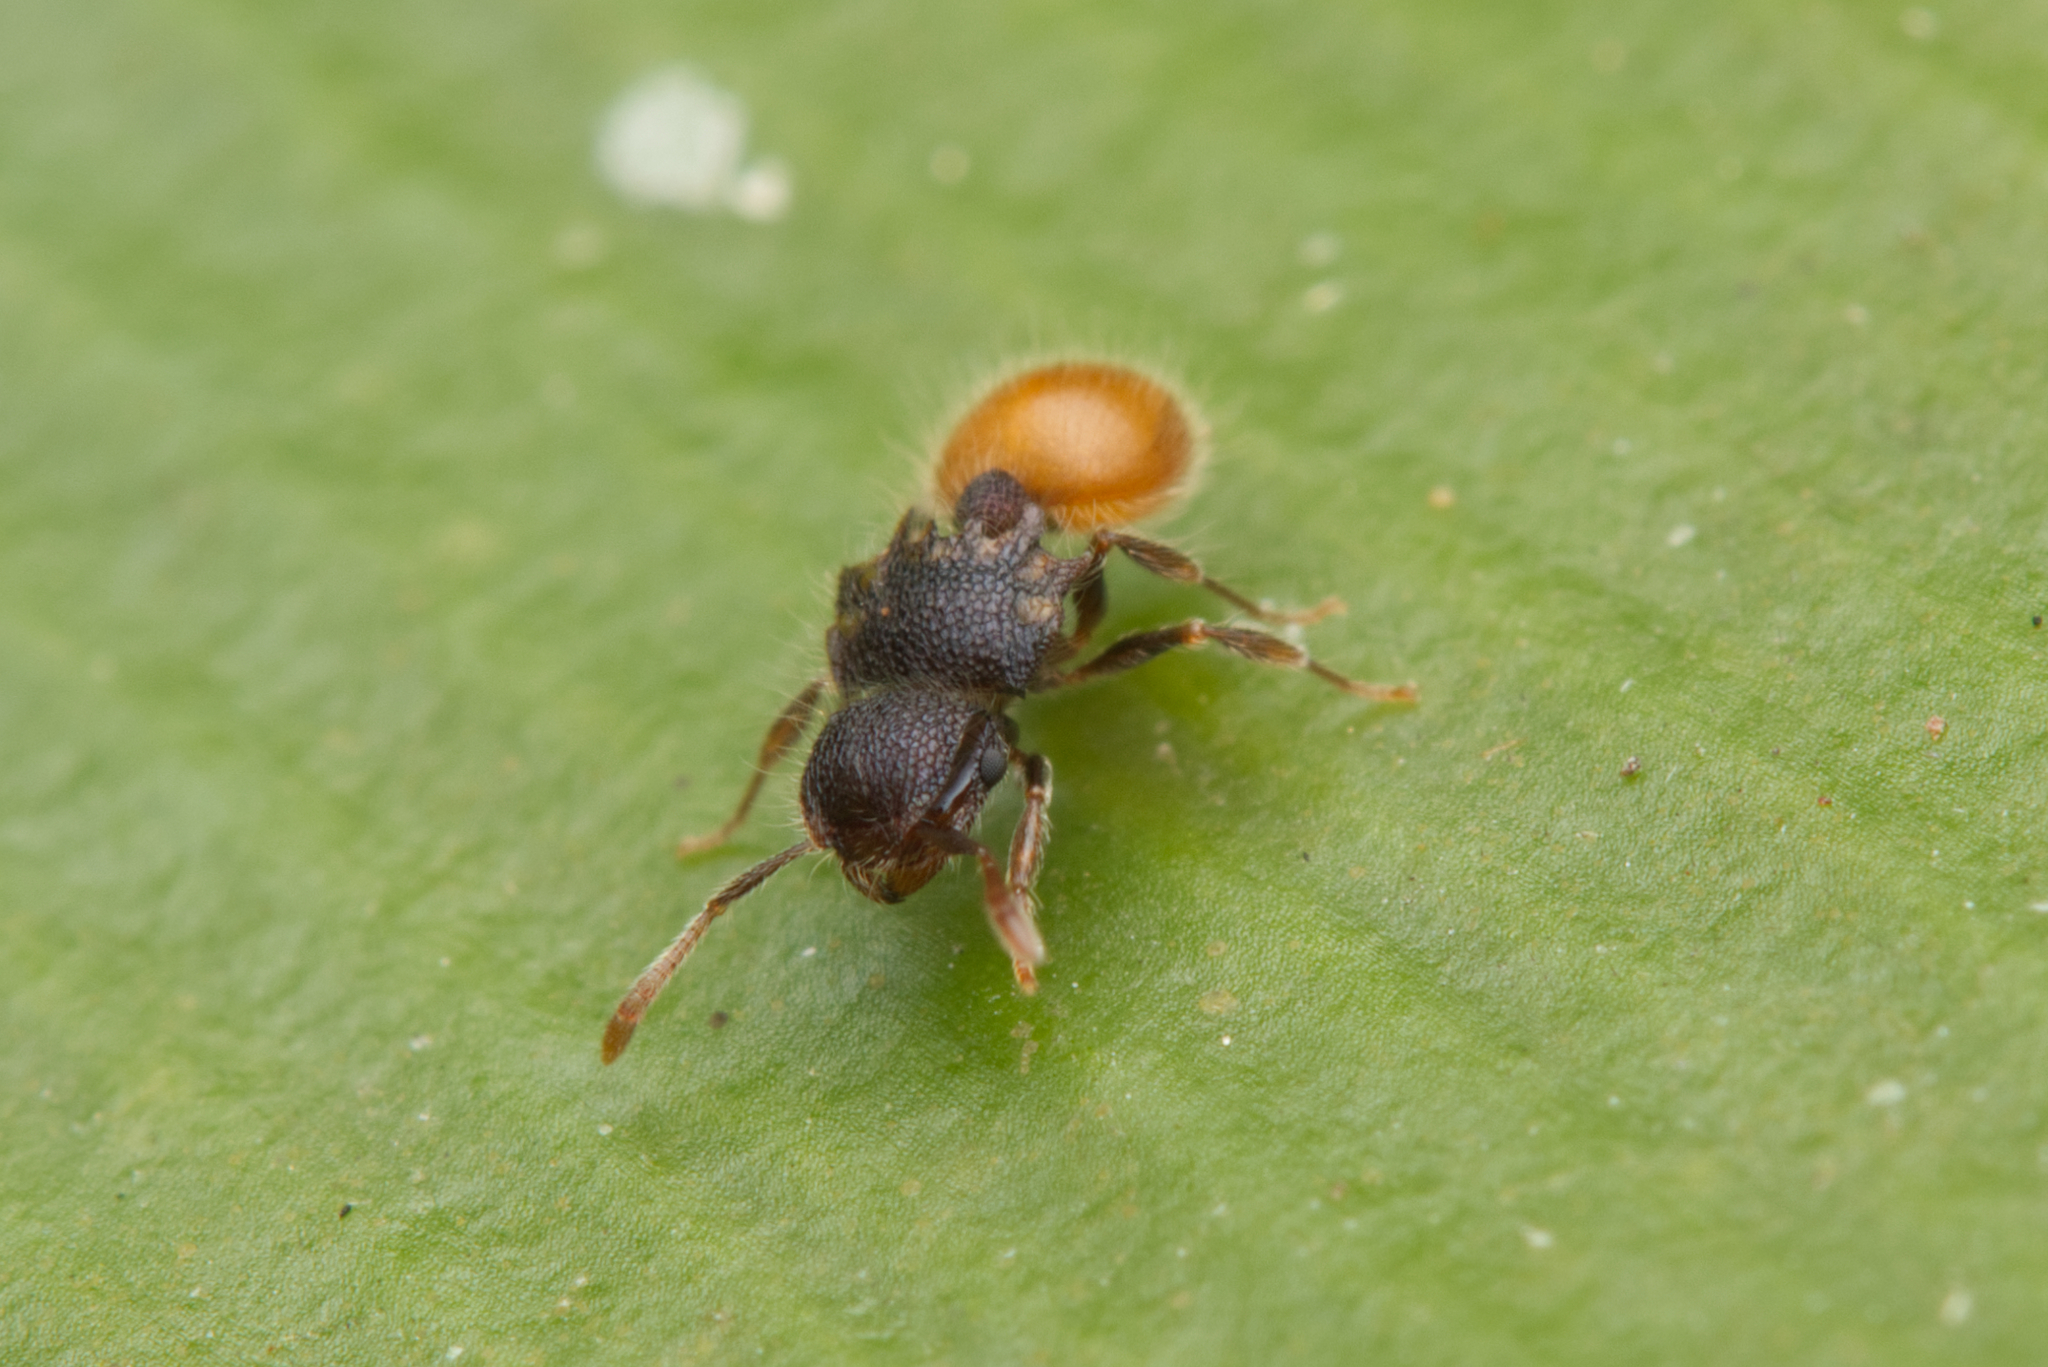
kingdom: Animalia
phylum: Arthropoda
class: Insecta
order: Hymenoptera
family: Formicidae
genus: Meranoplus
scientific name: Meranoplus hirsutus
